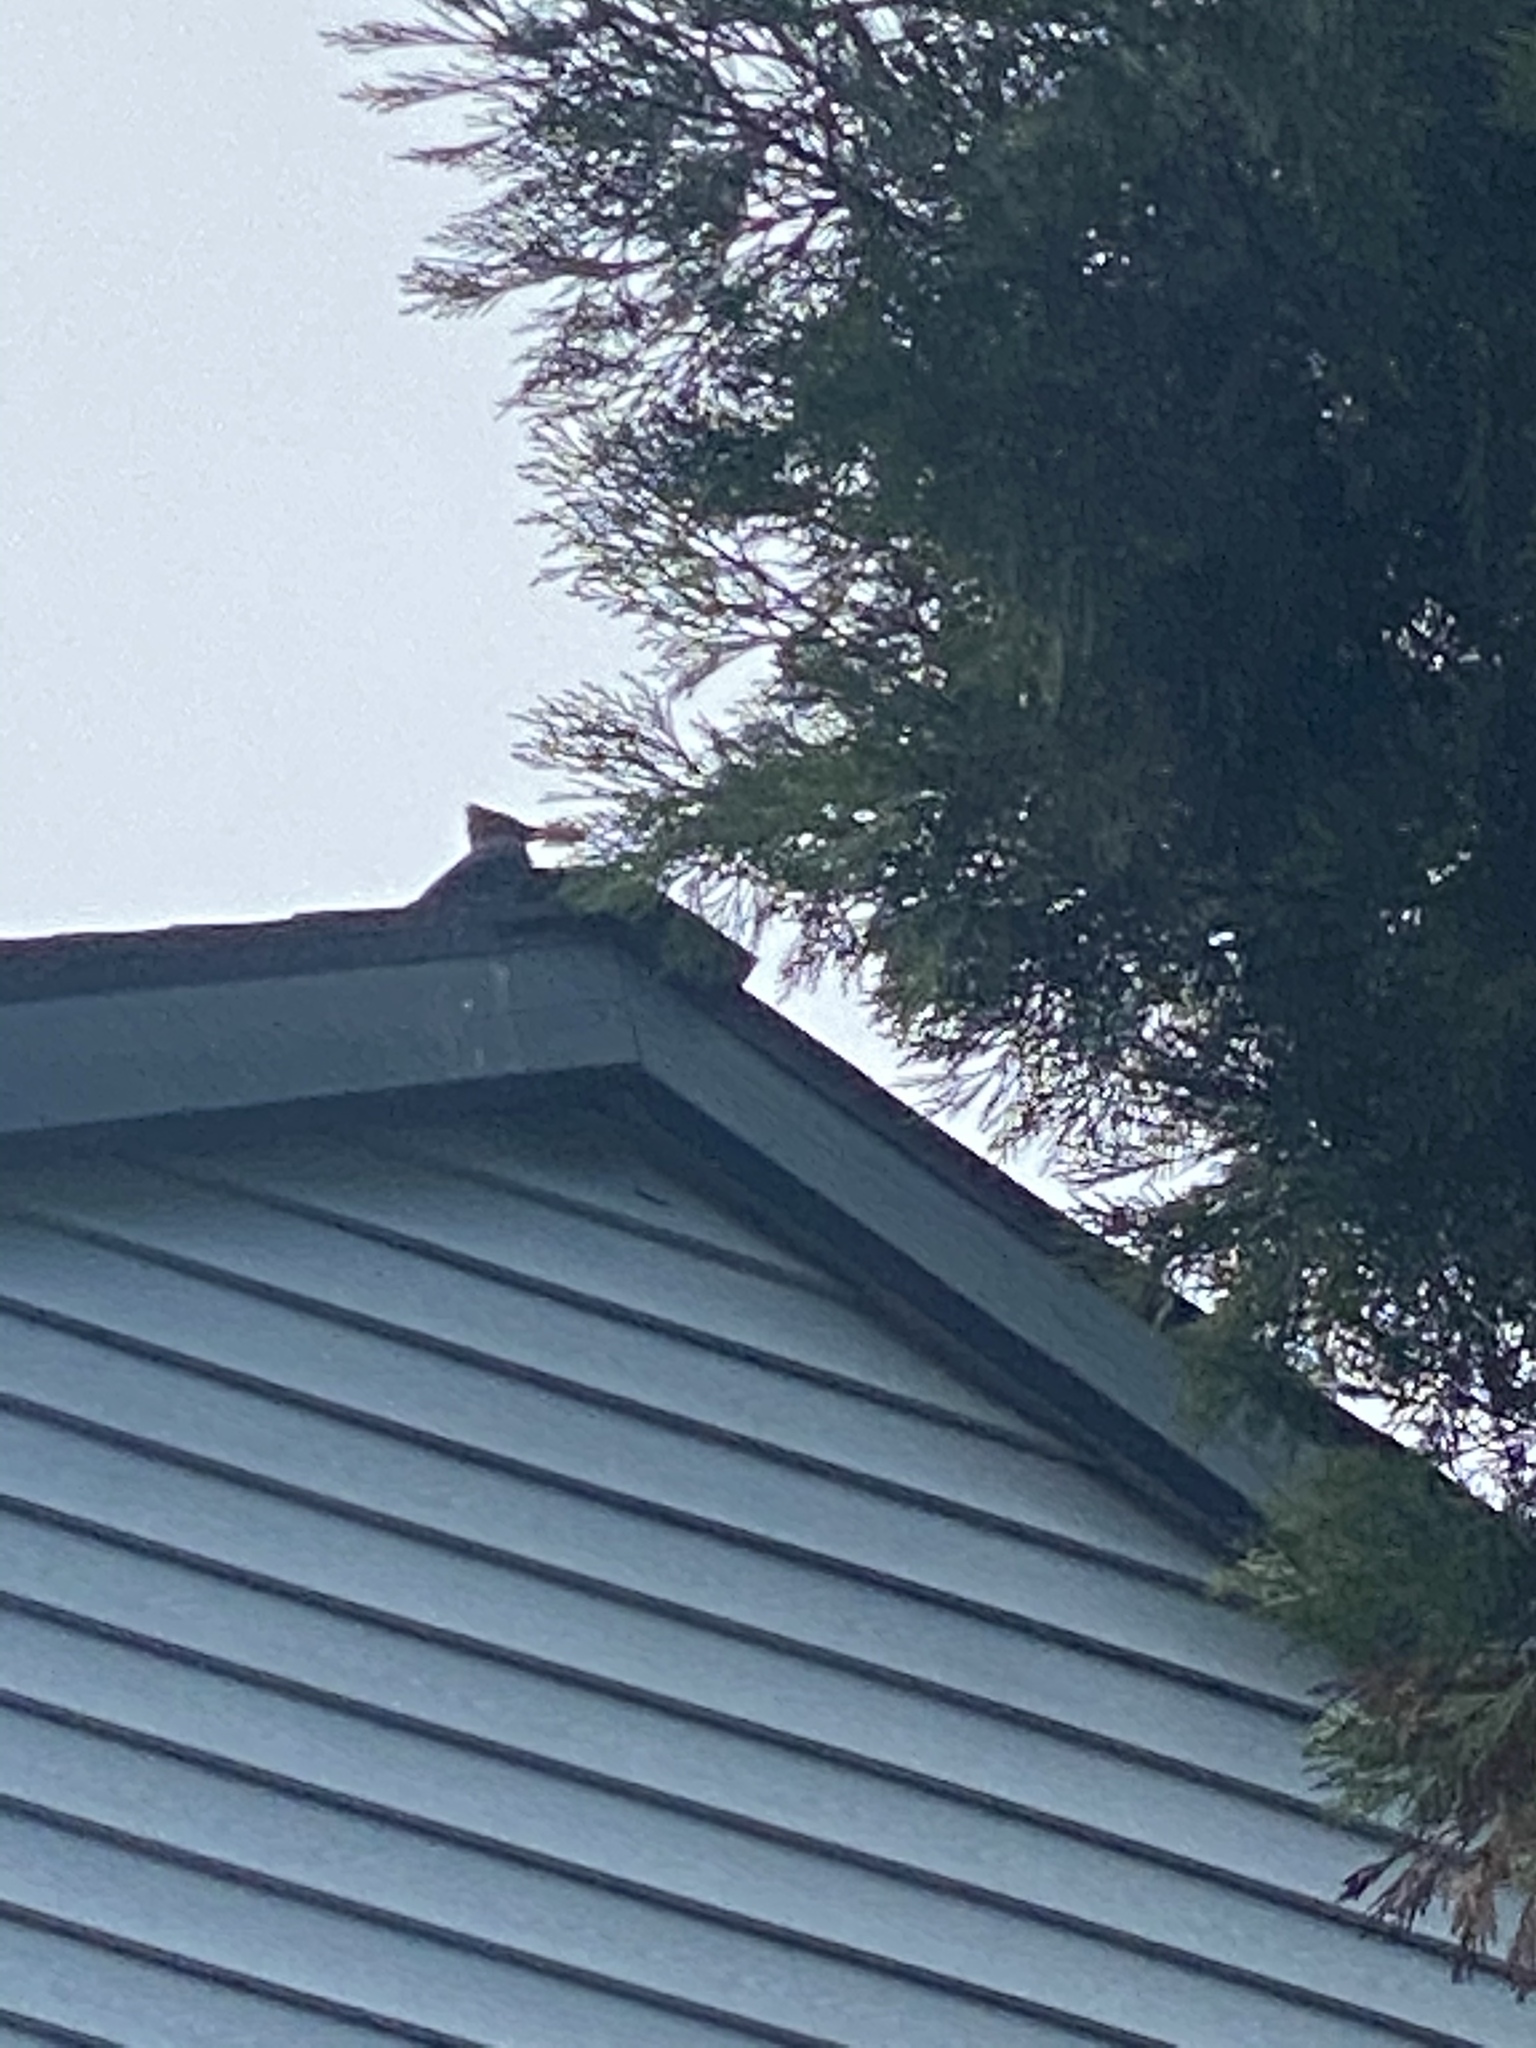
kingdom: Animalia
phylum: Chordata
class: Aves
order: Passeriformes
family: Corvidae
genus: Cyanocitta
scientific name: Cyanocitta stelleri
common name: Steller's jay
